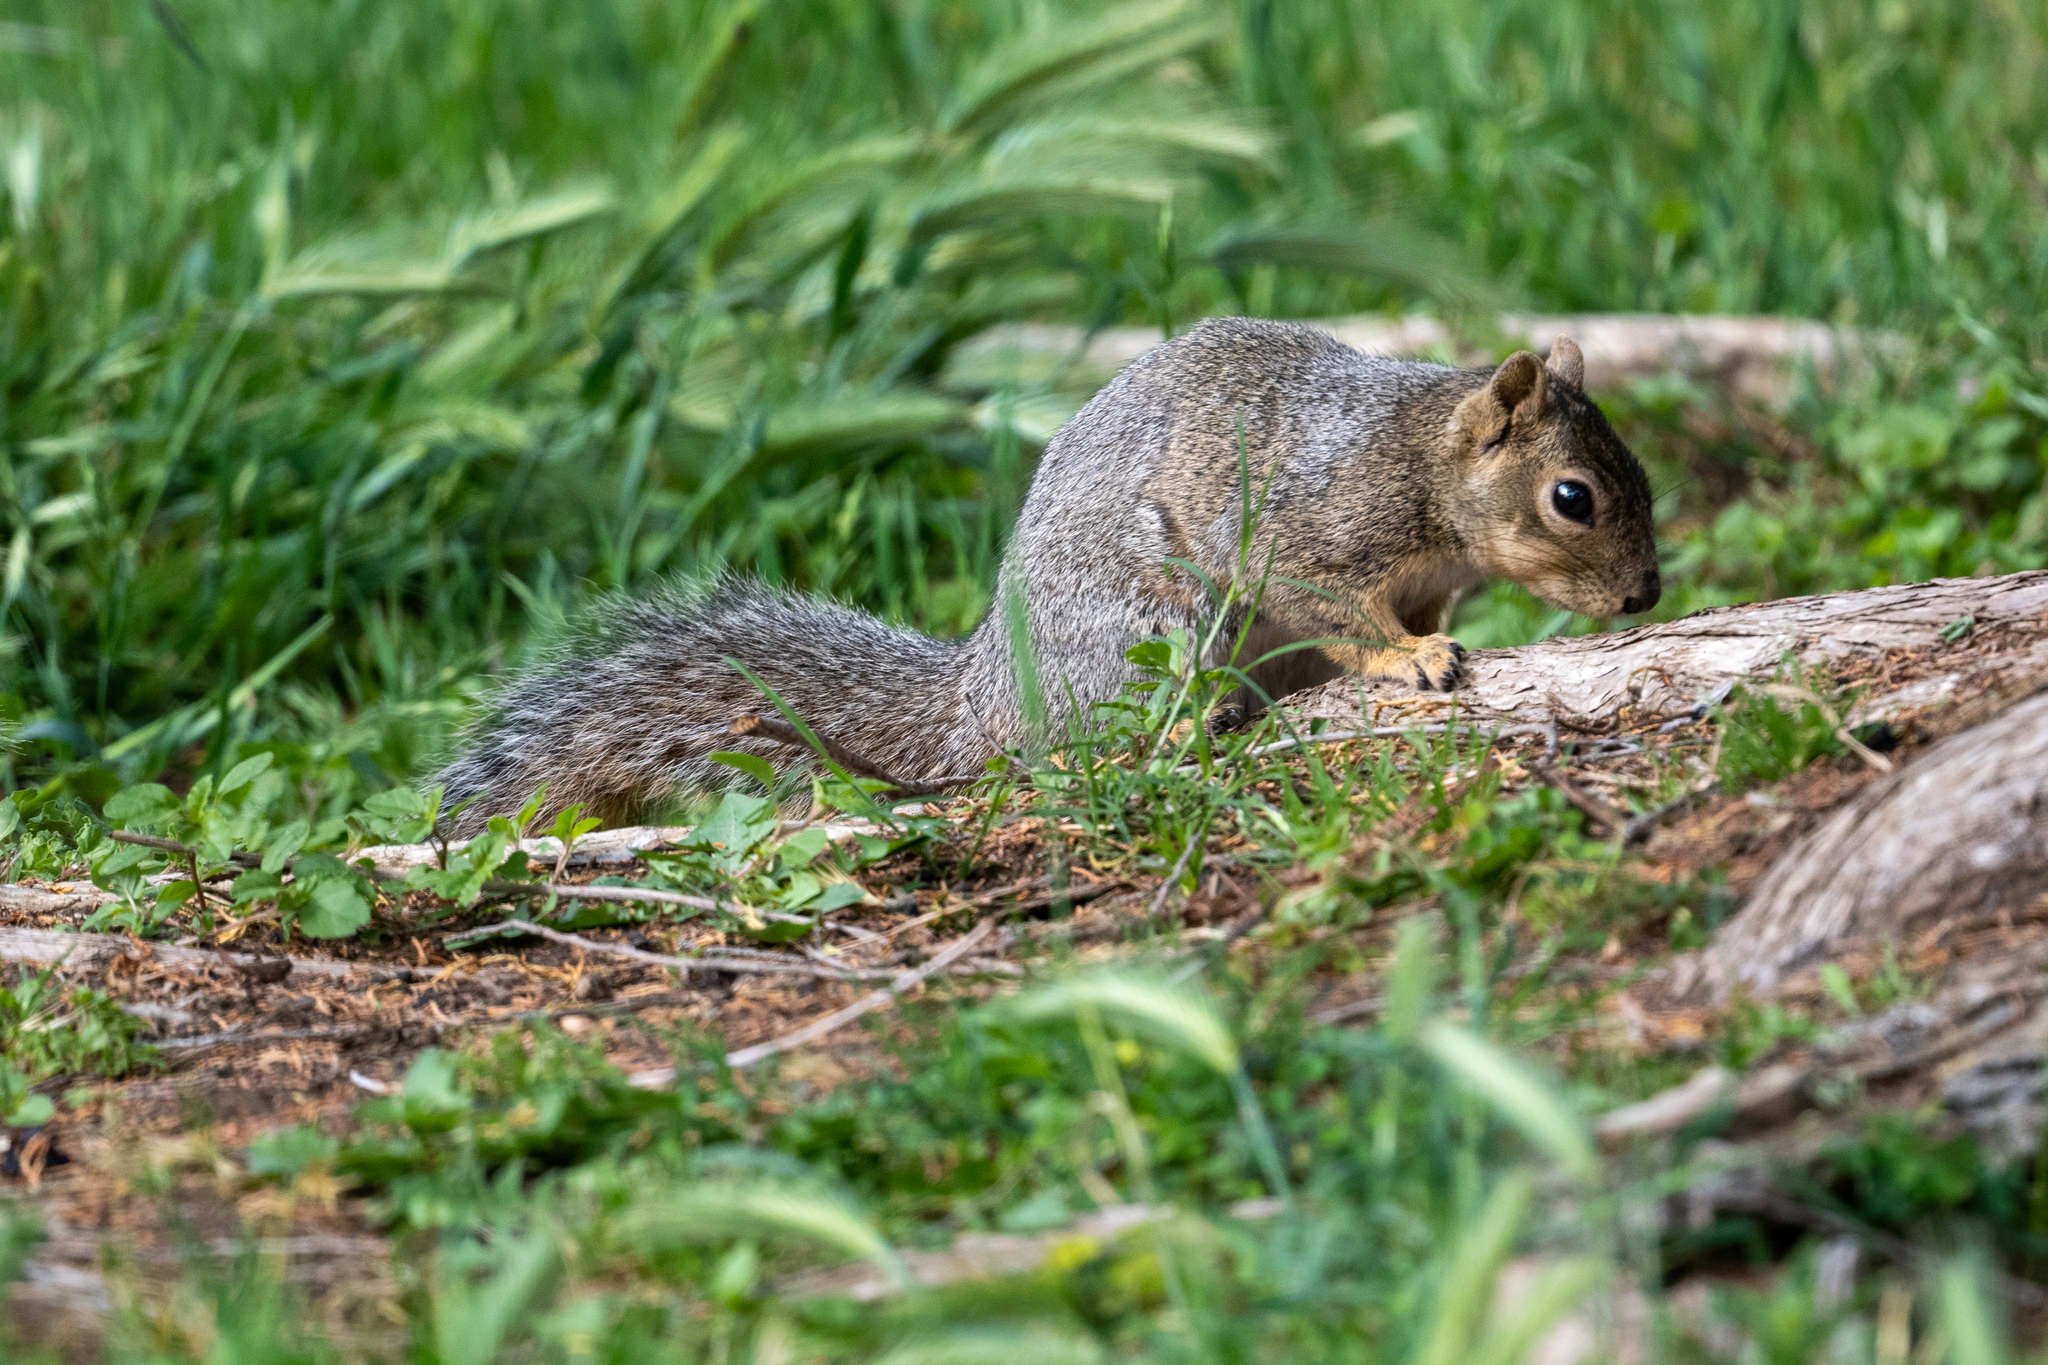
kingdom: Animalia
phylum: Chordata
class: Mammalia
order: Rodentia
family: Sciuridae
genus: Sciurus
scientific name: Sciurus niger
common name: Fox squirrel
